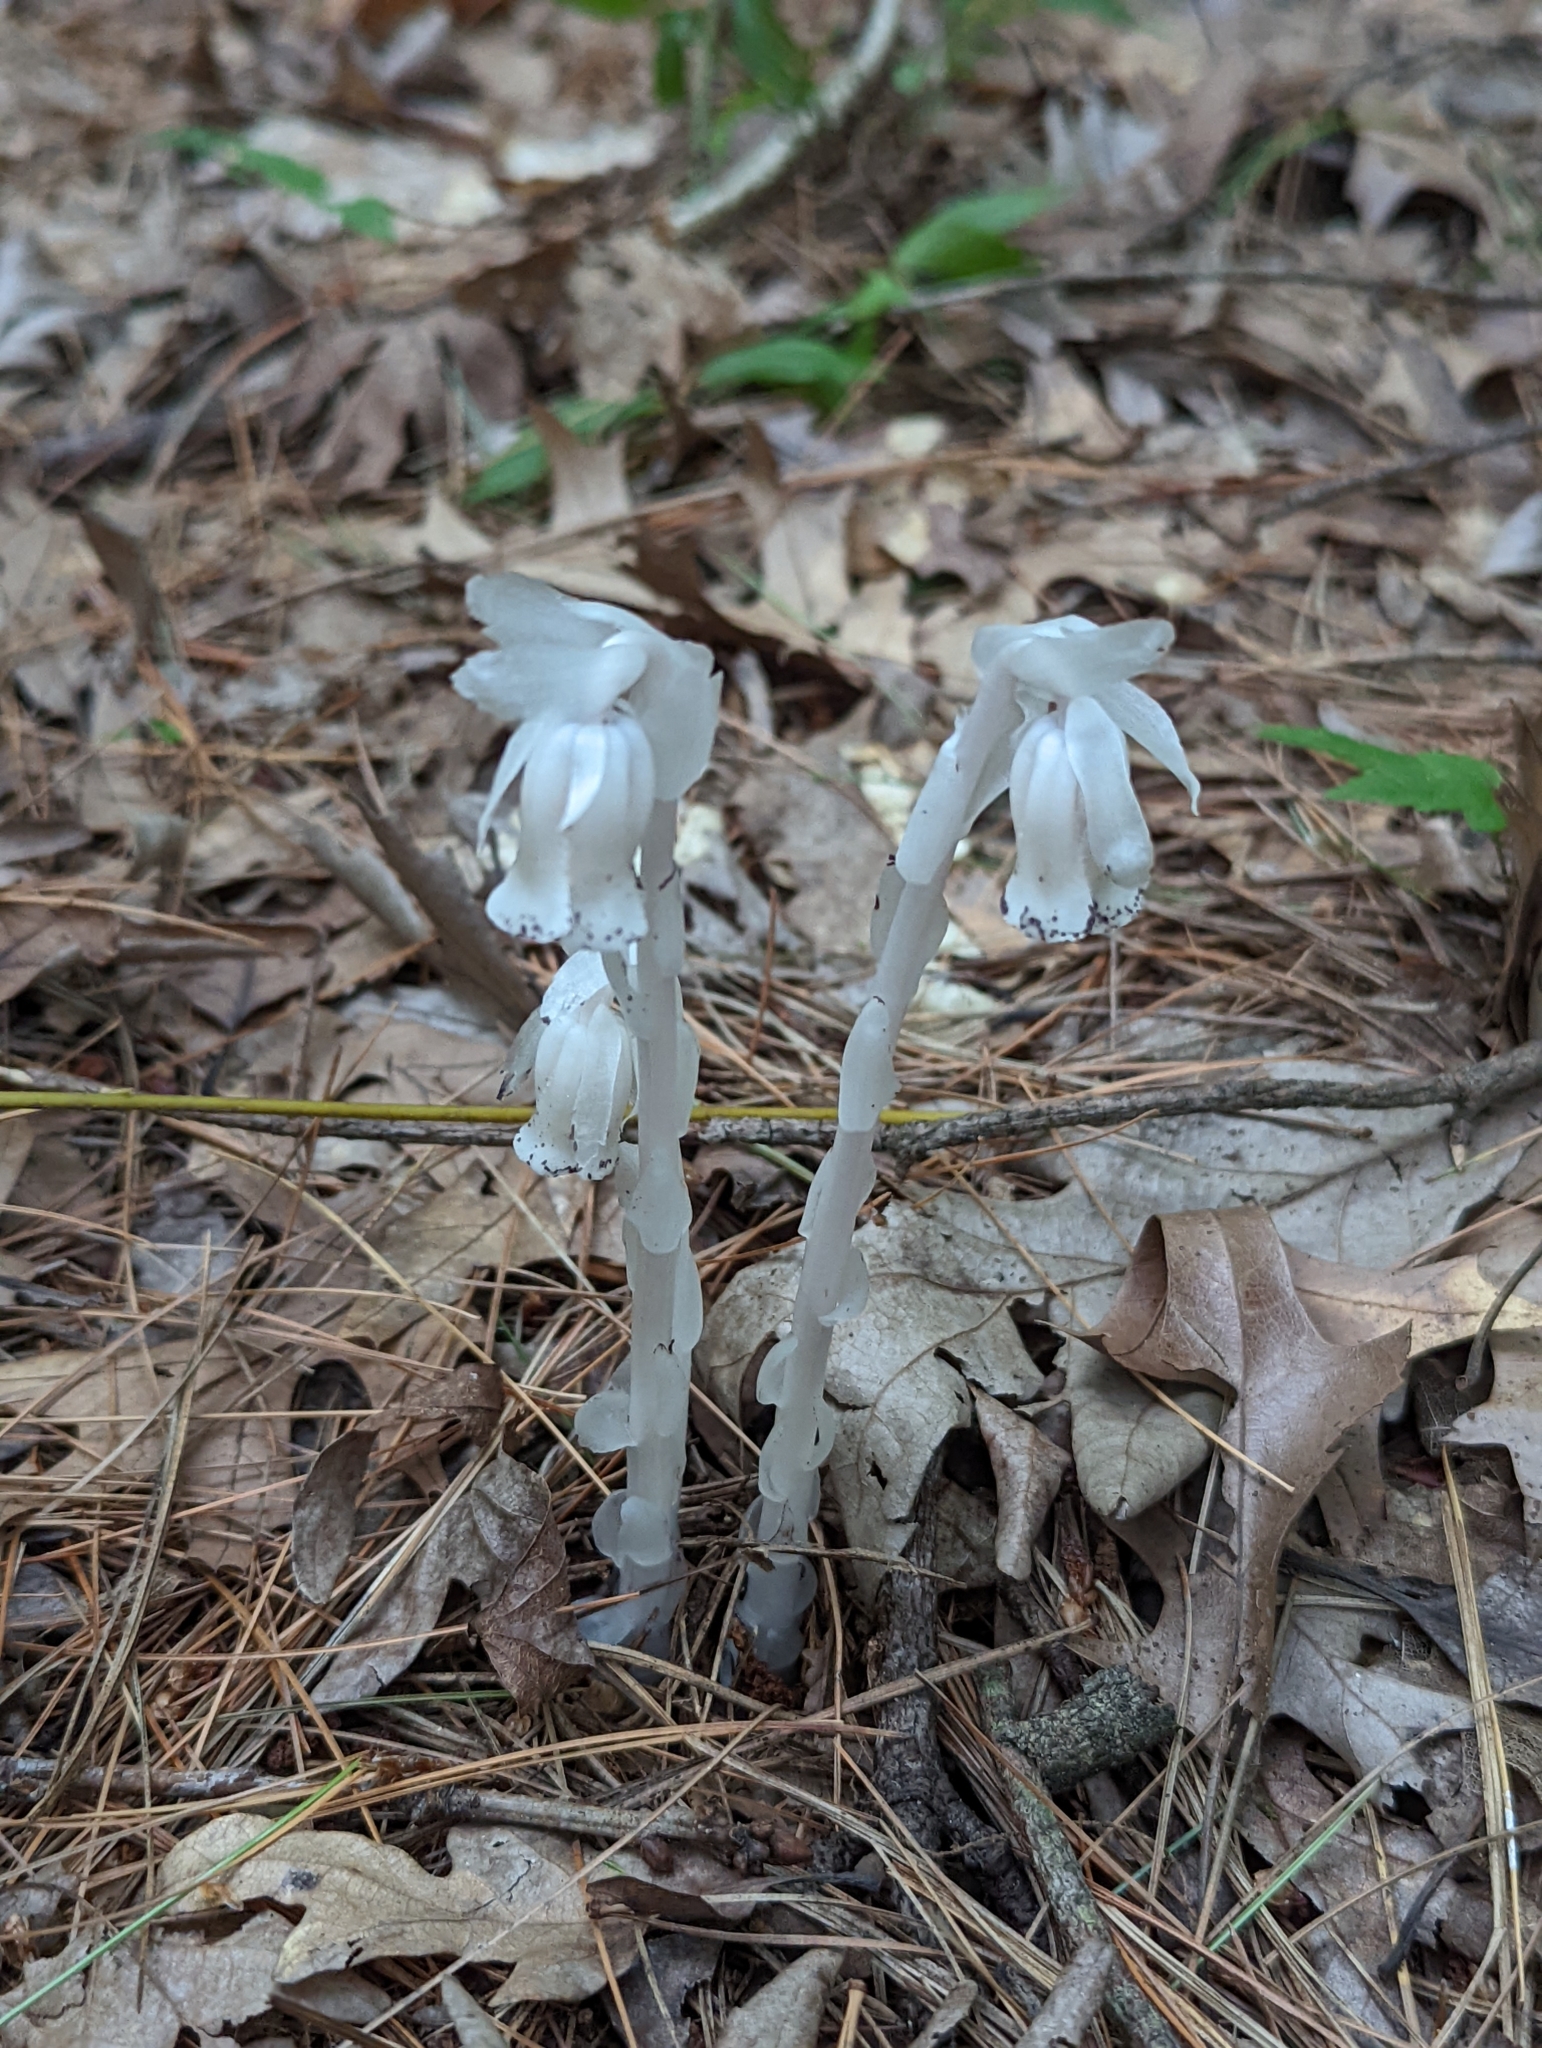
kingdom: Plantae
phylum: Tracheophyta
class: Magnoliopsida
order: Ericales
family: Ericaceae
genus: Monotropa
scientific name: Monotropa uniflora
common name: Convulsion root
